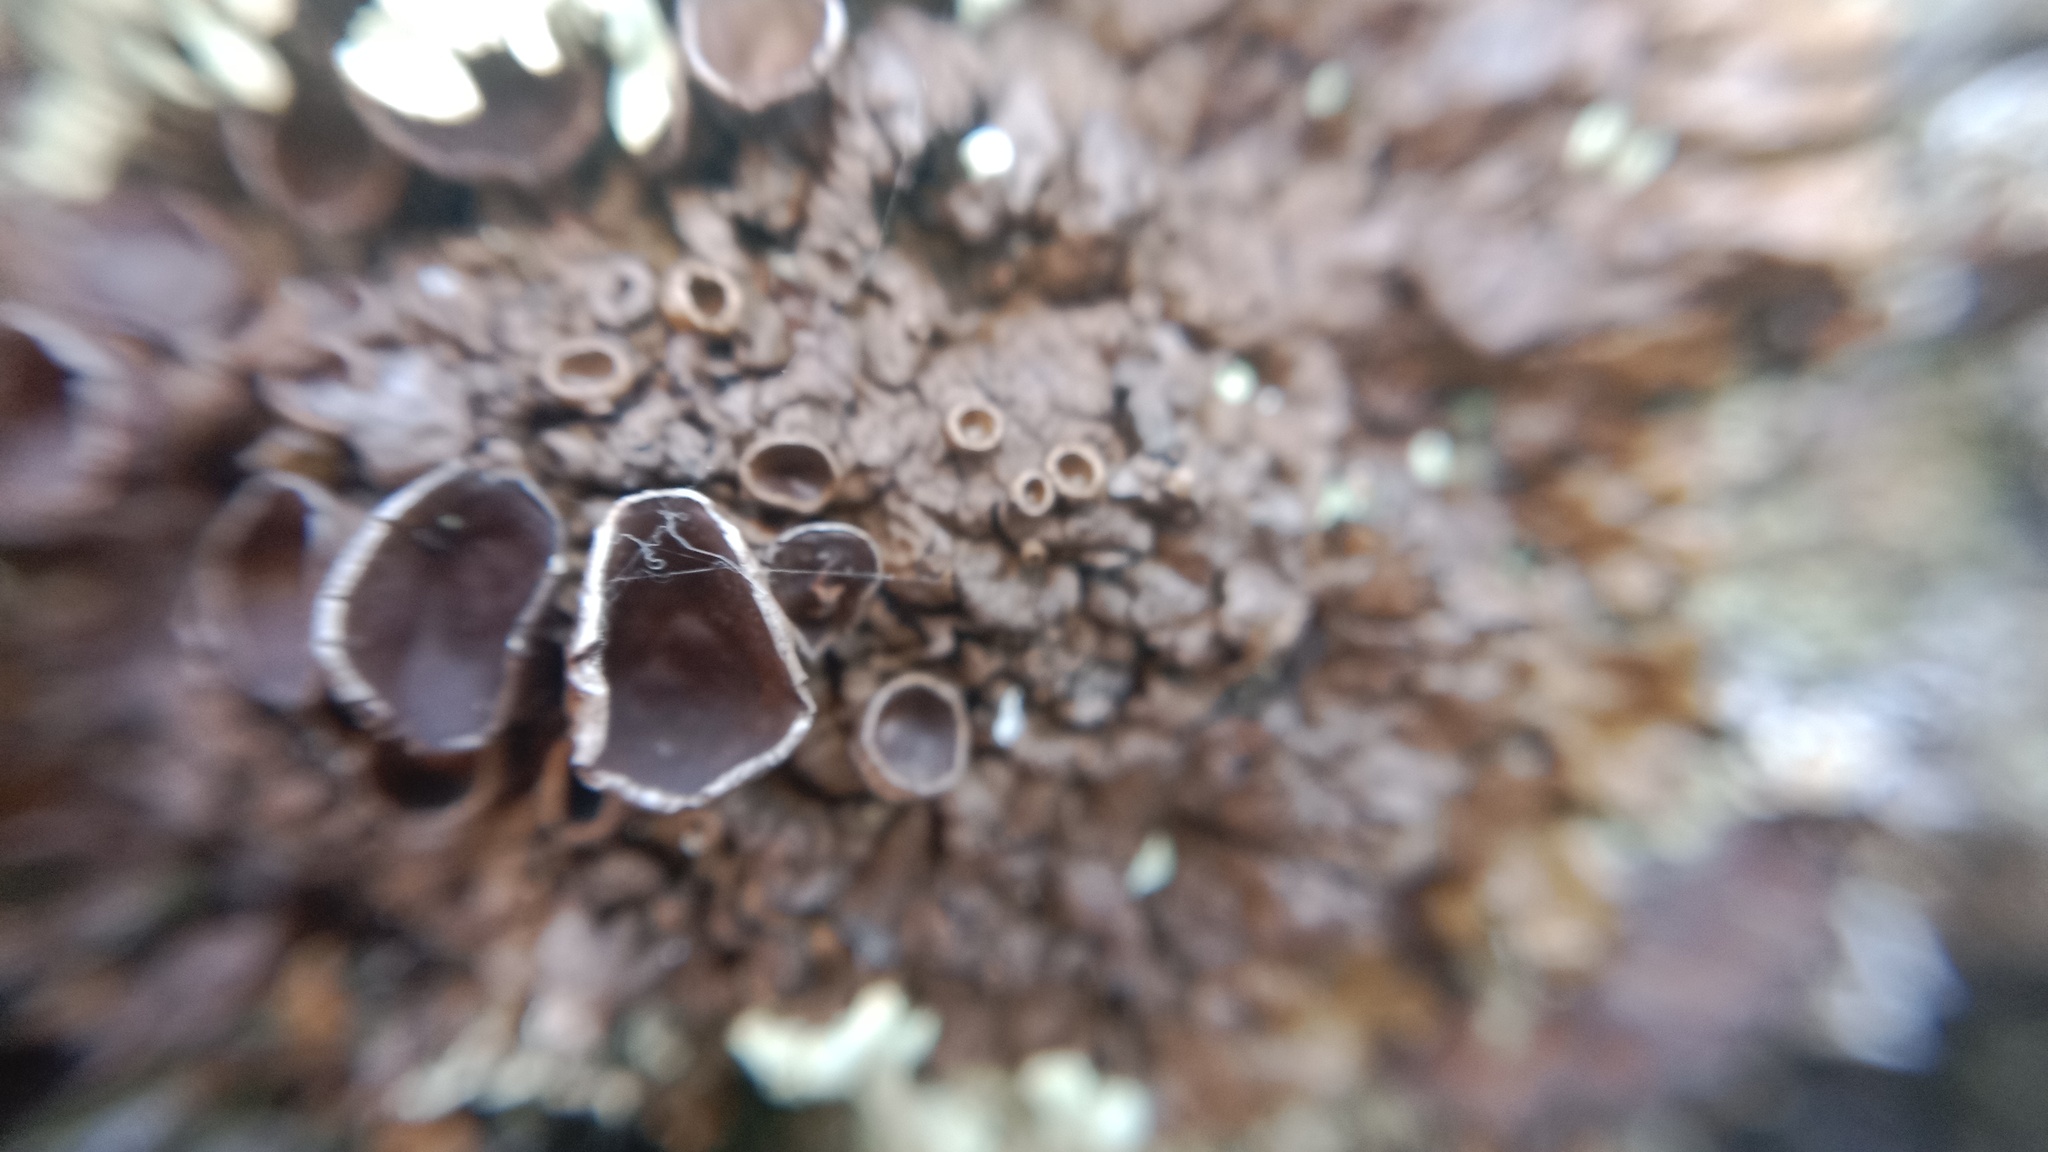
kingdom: Fungi
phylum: Ascomycota
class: Lecanoromycetes
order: Lecanorales
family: Parmeliaceae
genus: Xanthoparmelia
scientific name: Xanthoparmelia pulla
